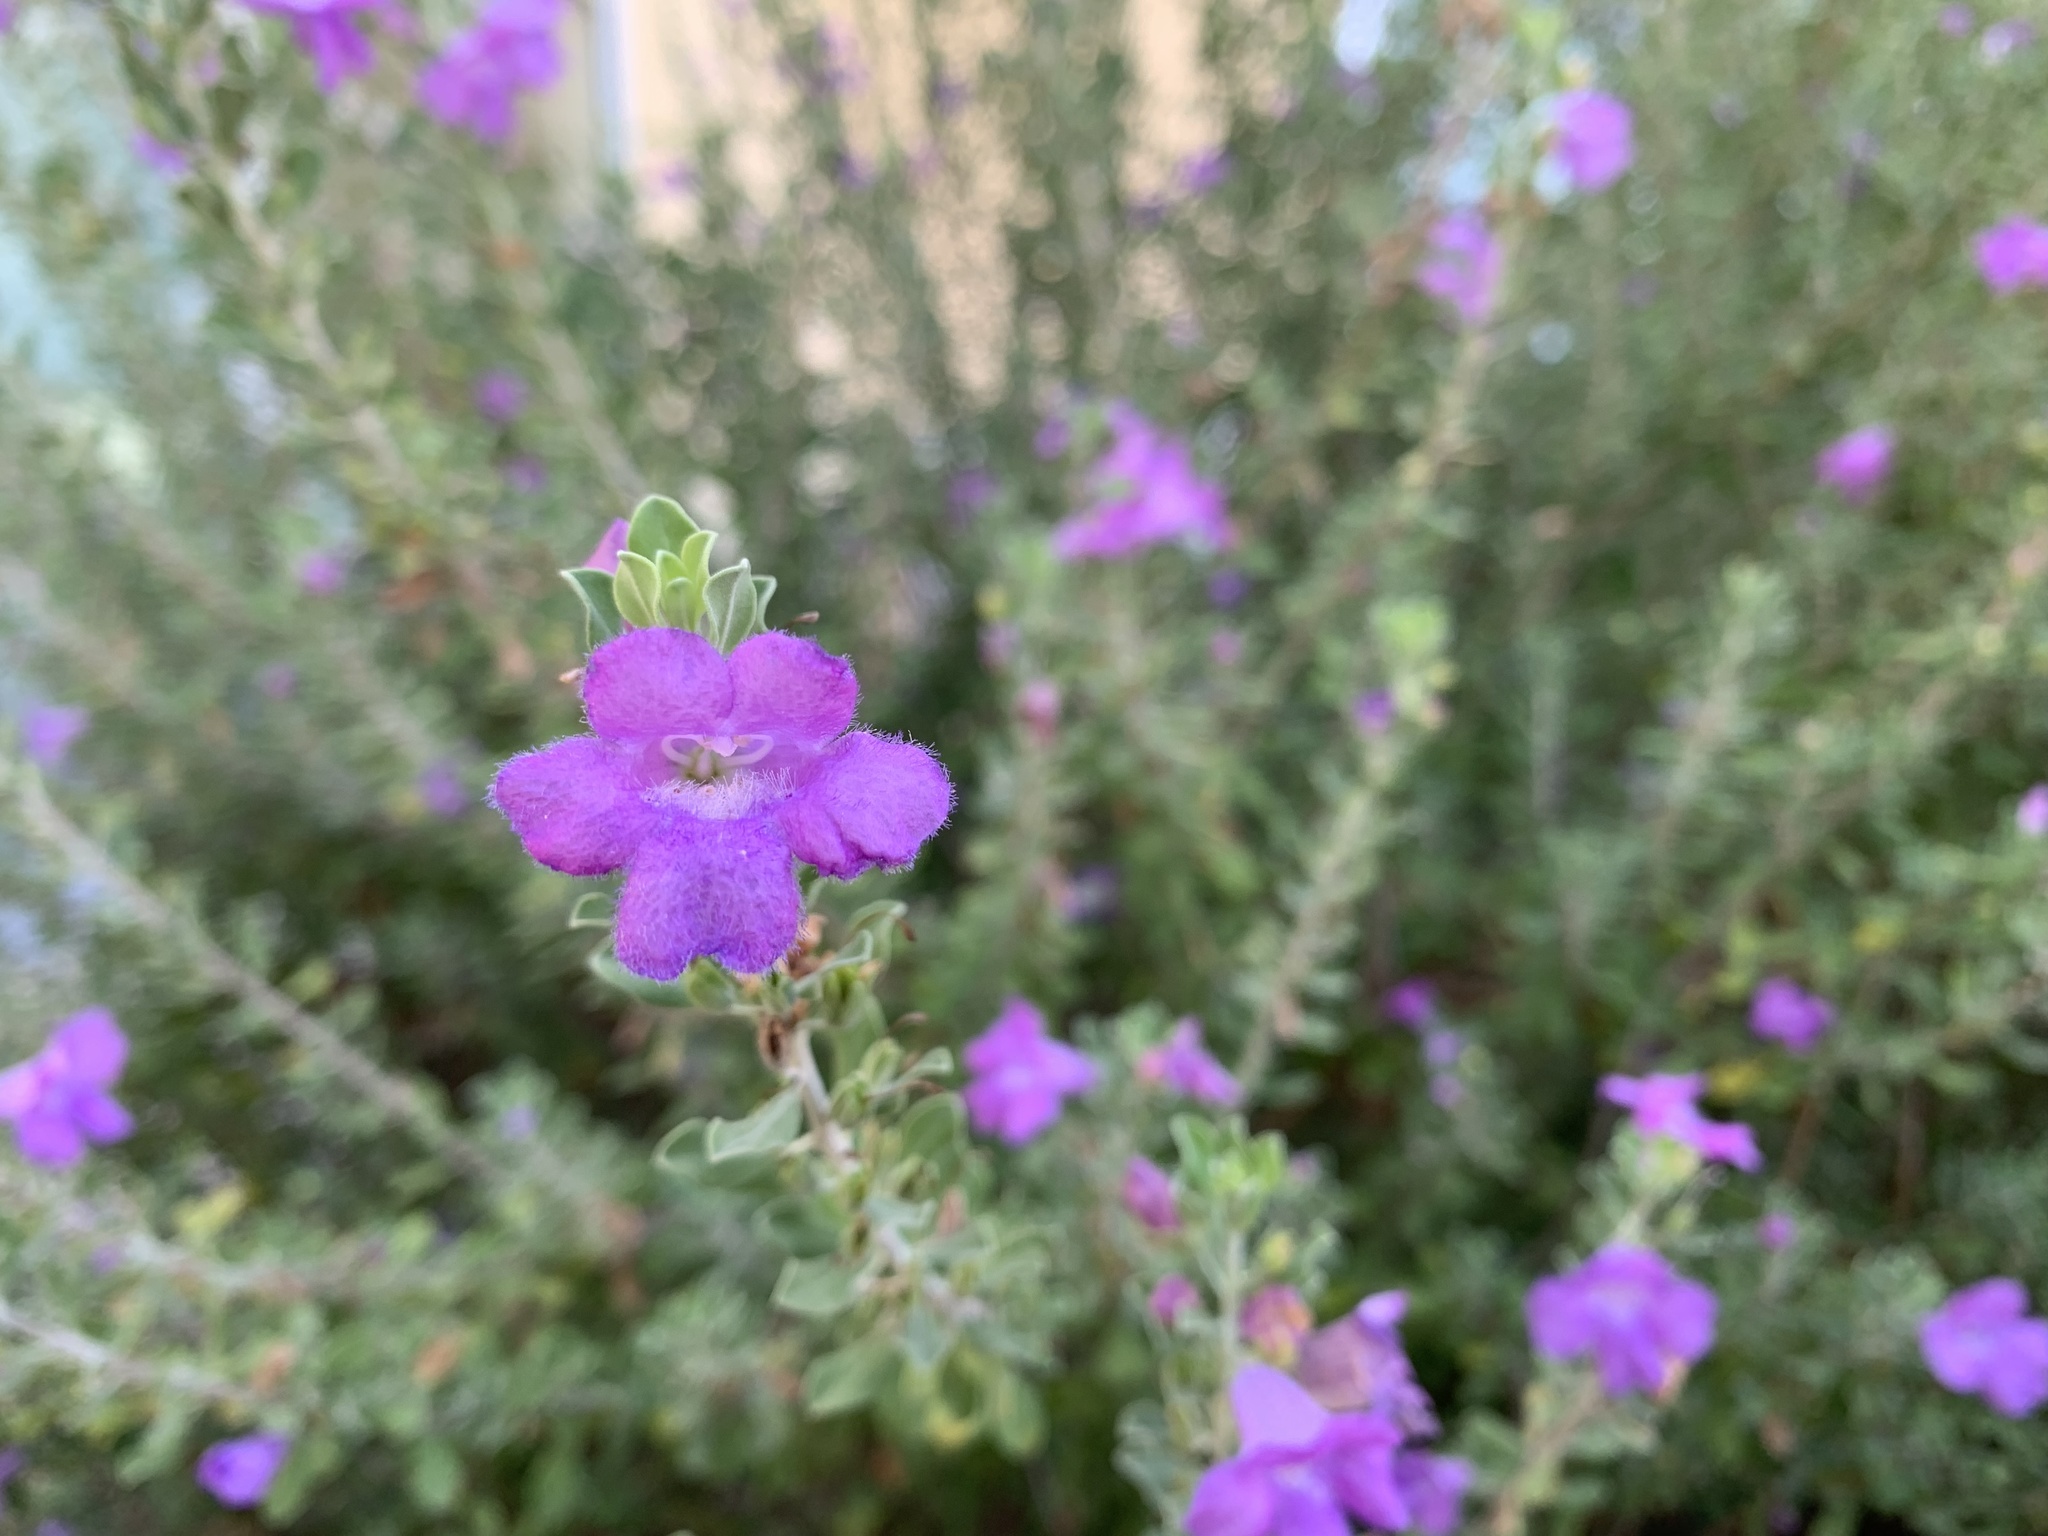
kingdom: Plantae
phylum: Tracheophyta
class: Magnoliopsida
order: Lamiales
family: Scrophulariaceae
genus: Leucophyllum
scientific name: Leucophyllum frutescens
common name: Texas silverleaf
